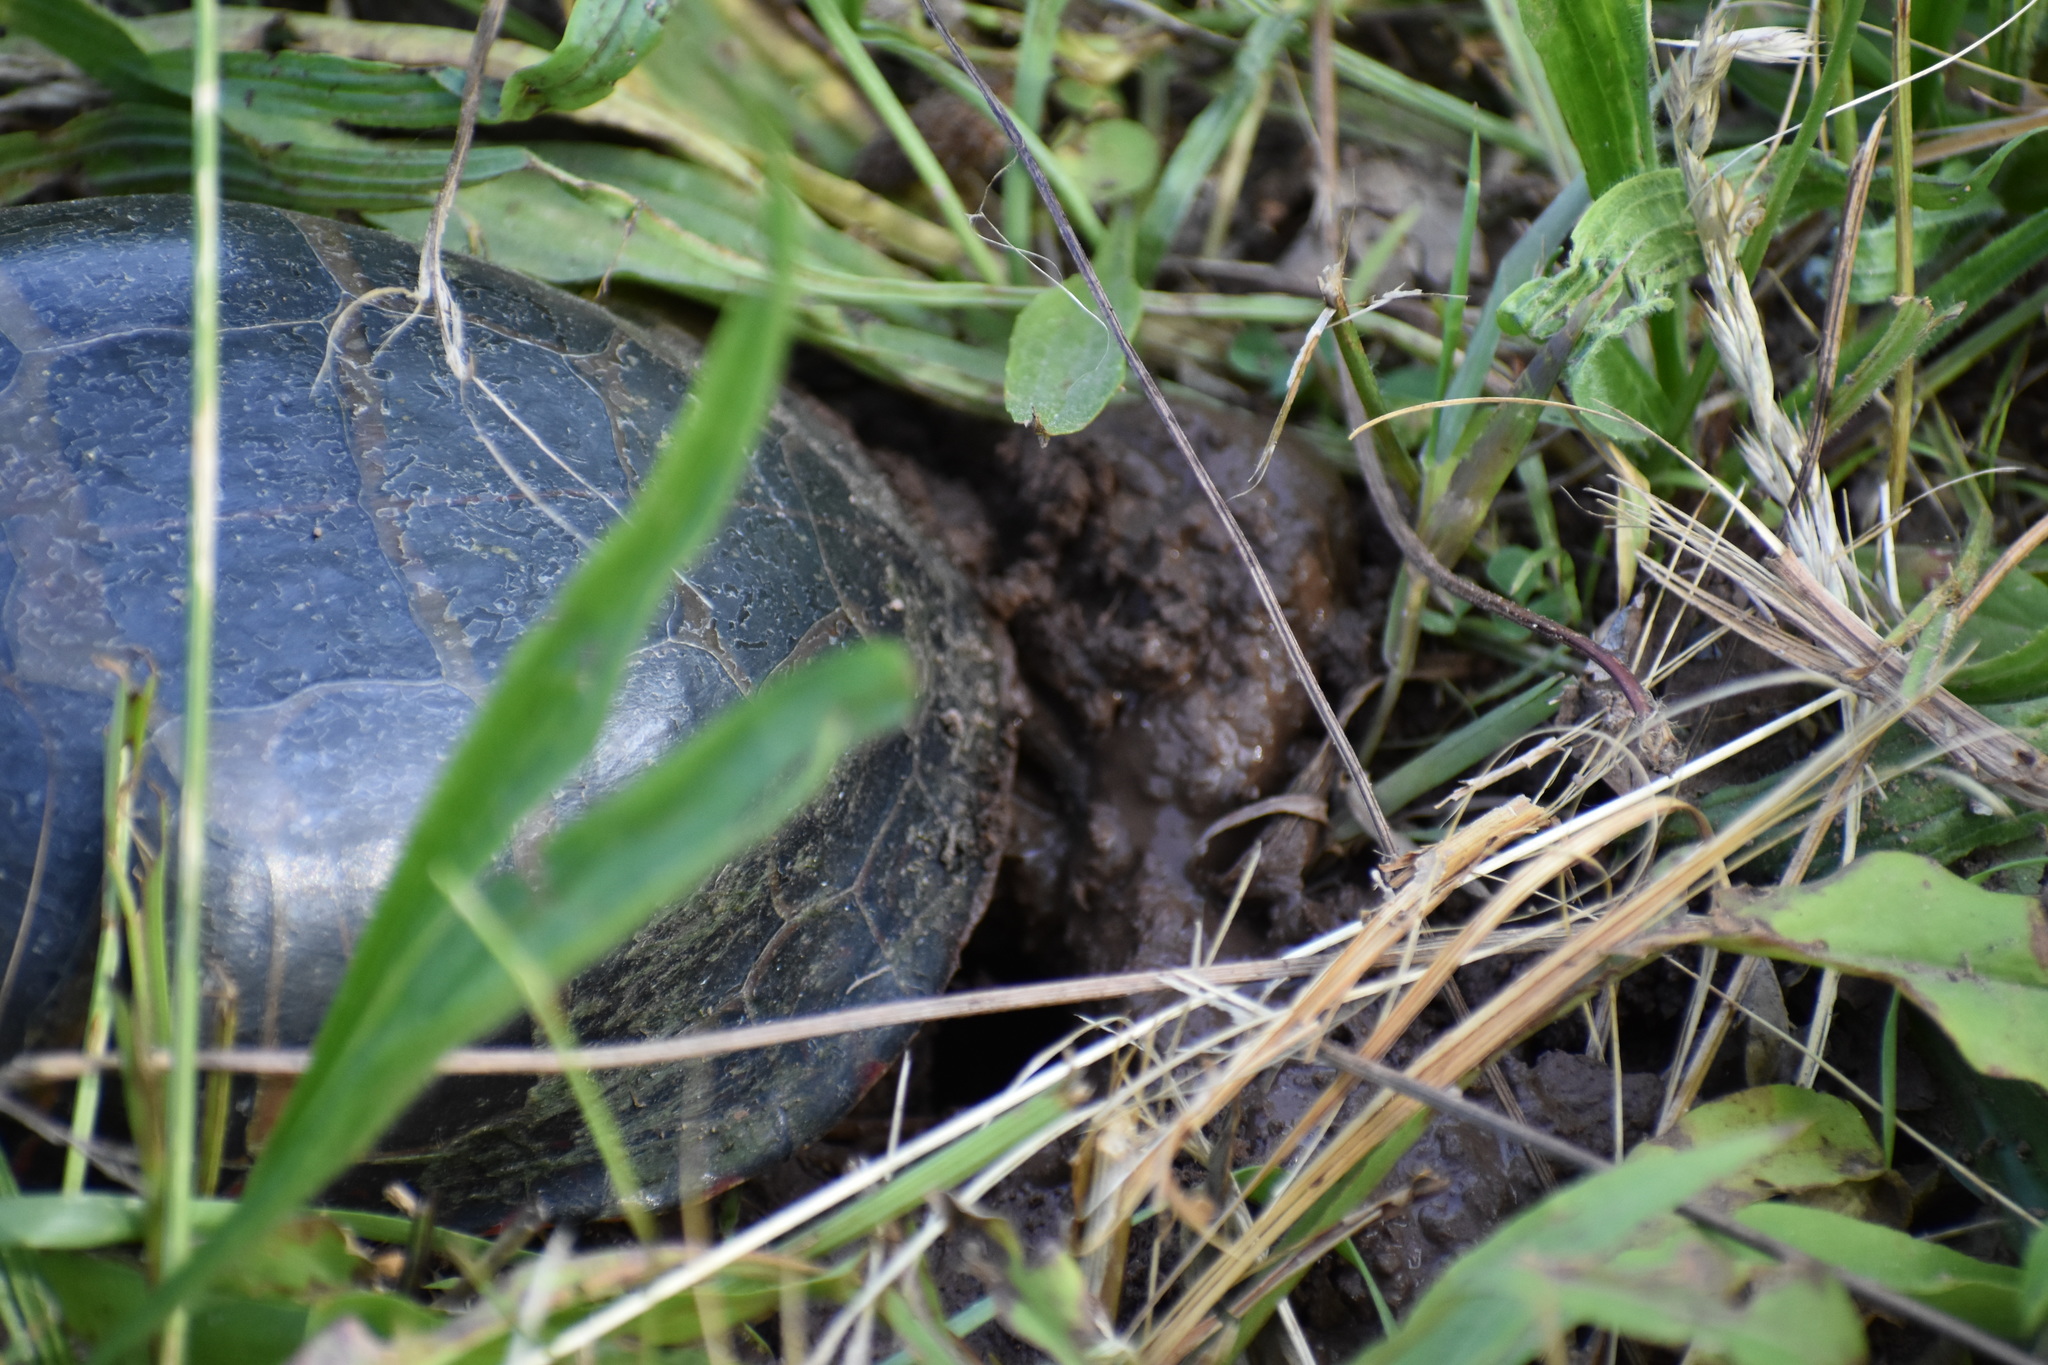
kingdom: Animalia
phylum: Chordata
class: Testudines
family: Emydidae
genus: Chrysemys
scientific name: Chrysemys picta
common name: Painted turtle
